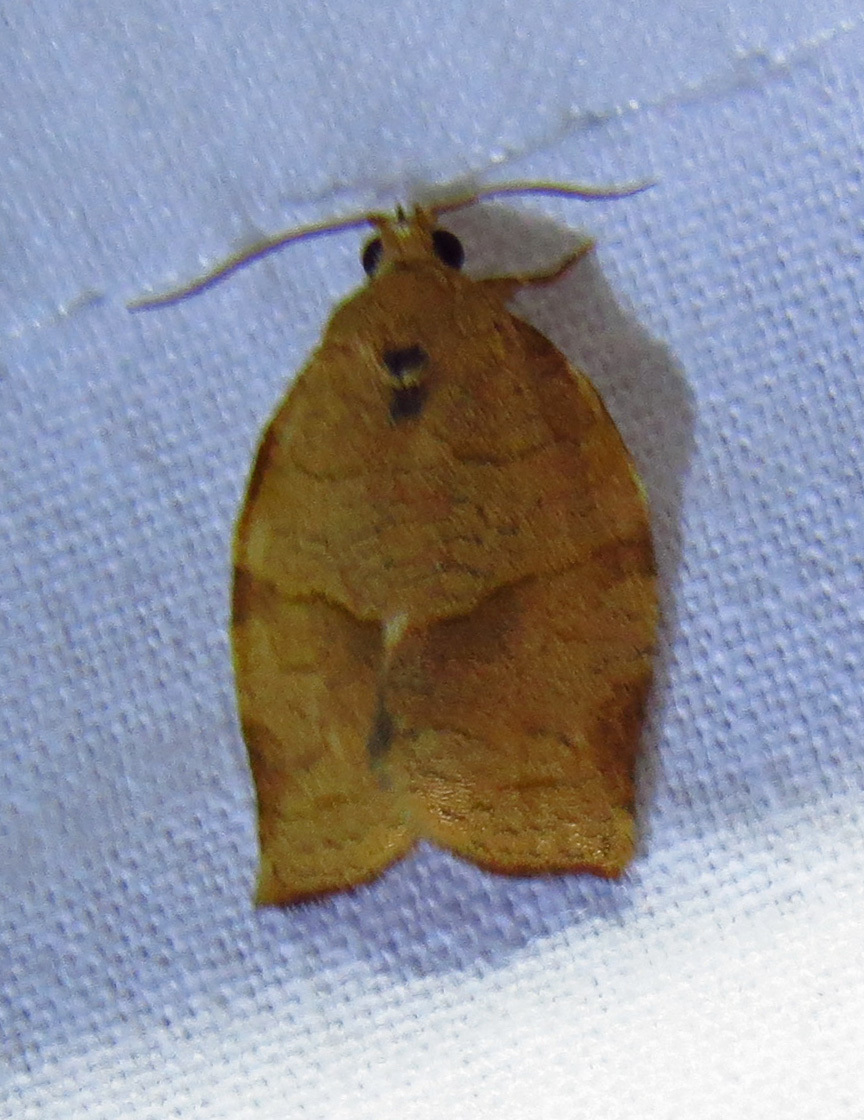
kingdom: Animalia
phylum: Arthropoda
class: Insecta
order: Lepidoptera
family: Tortricidae
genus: Choristoneura
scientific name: Choristoneura rosaceana
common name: Oblique-banded leafroller moth
